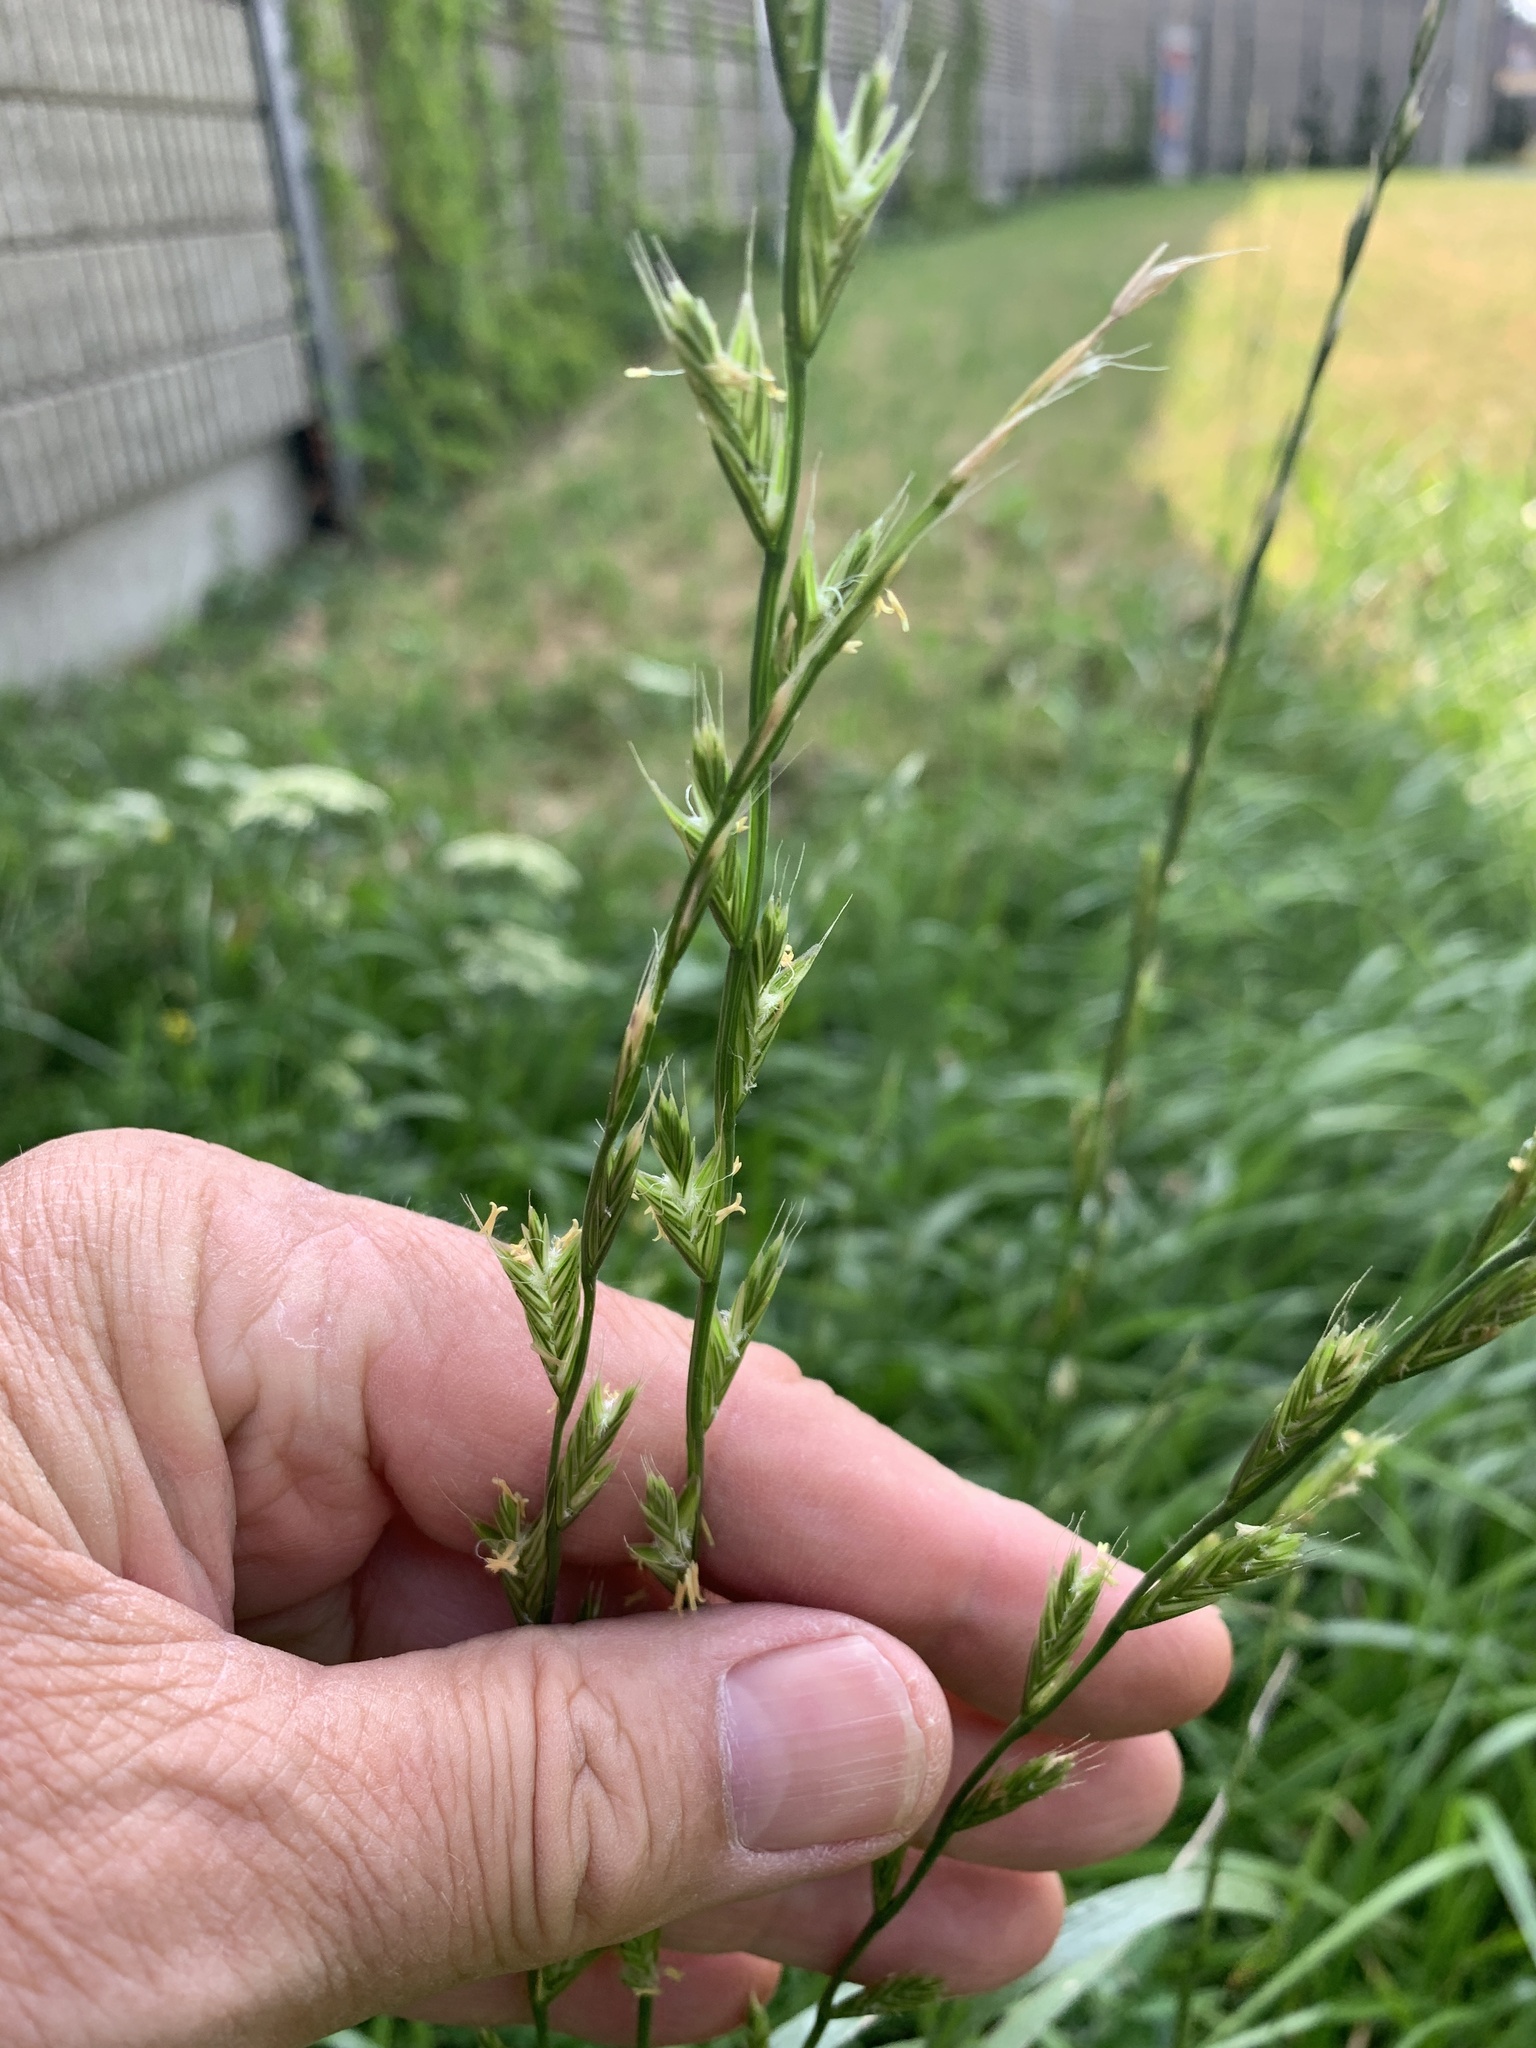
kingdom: Plantae
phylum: Tracheophyta
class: Liliopsida
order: Poales
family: Poaceae
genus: Lolium
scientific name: Lolium multiflorum
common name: Annual ryegrass
